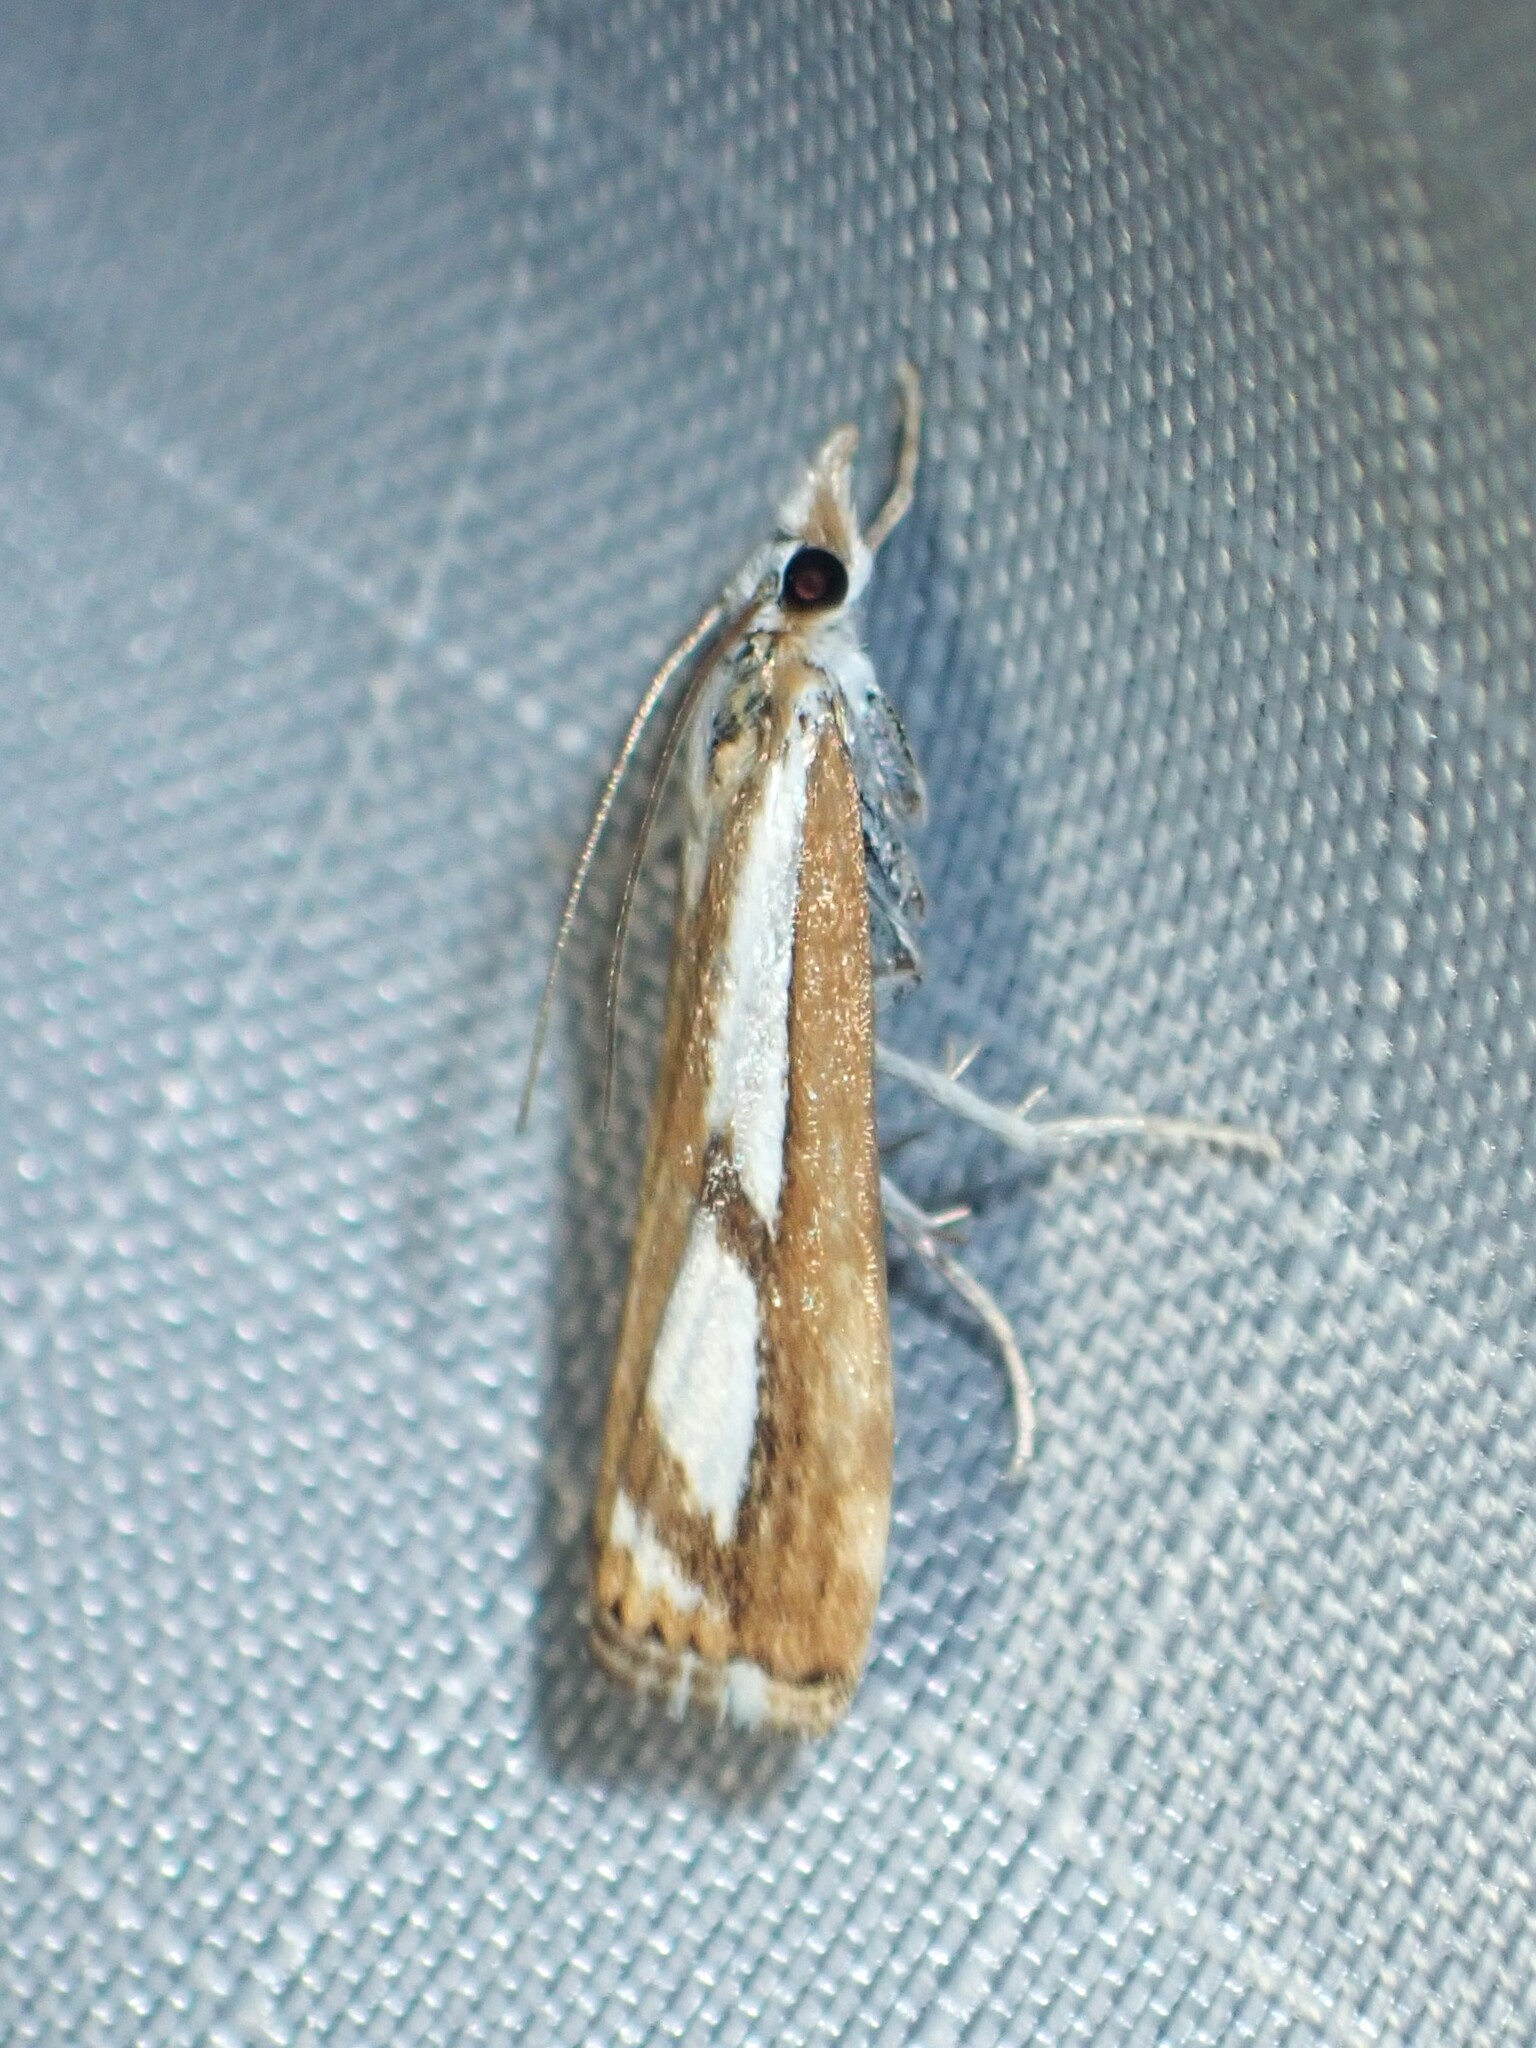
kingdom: Animalia
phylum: Arthropoda
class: Insecta
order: Lepidoptera
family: Crambidae
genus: Catoptria
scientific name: Catoptria latiradiellus
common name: Two-banded catoptria moth
